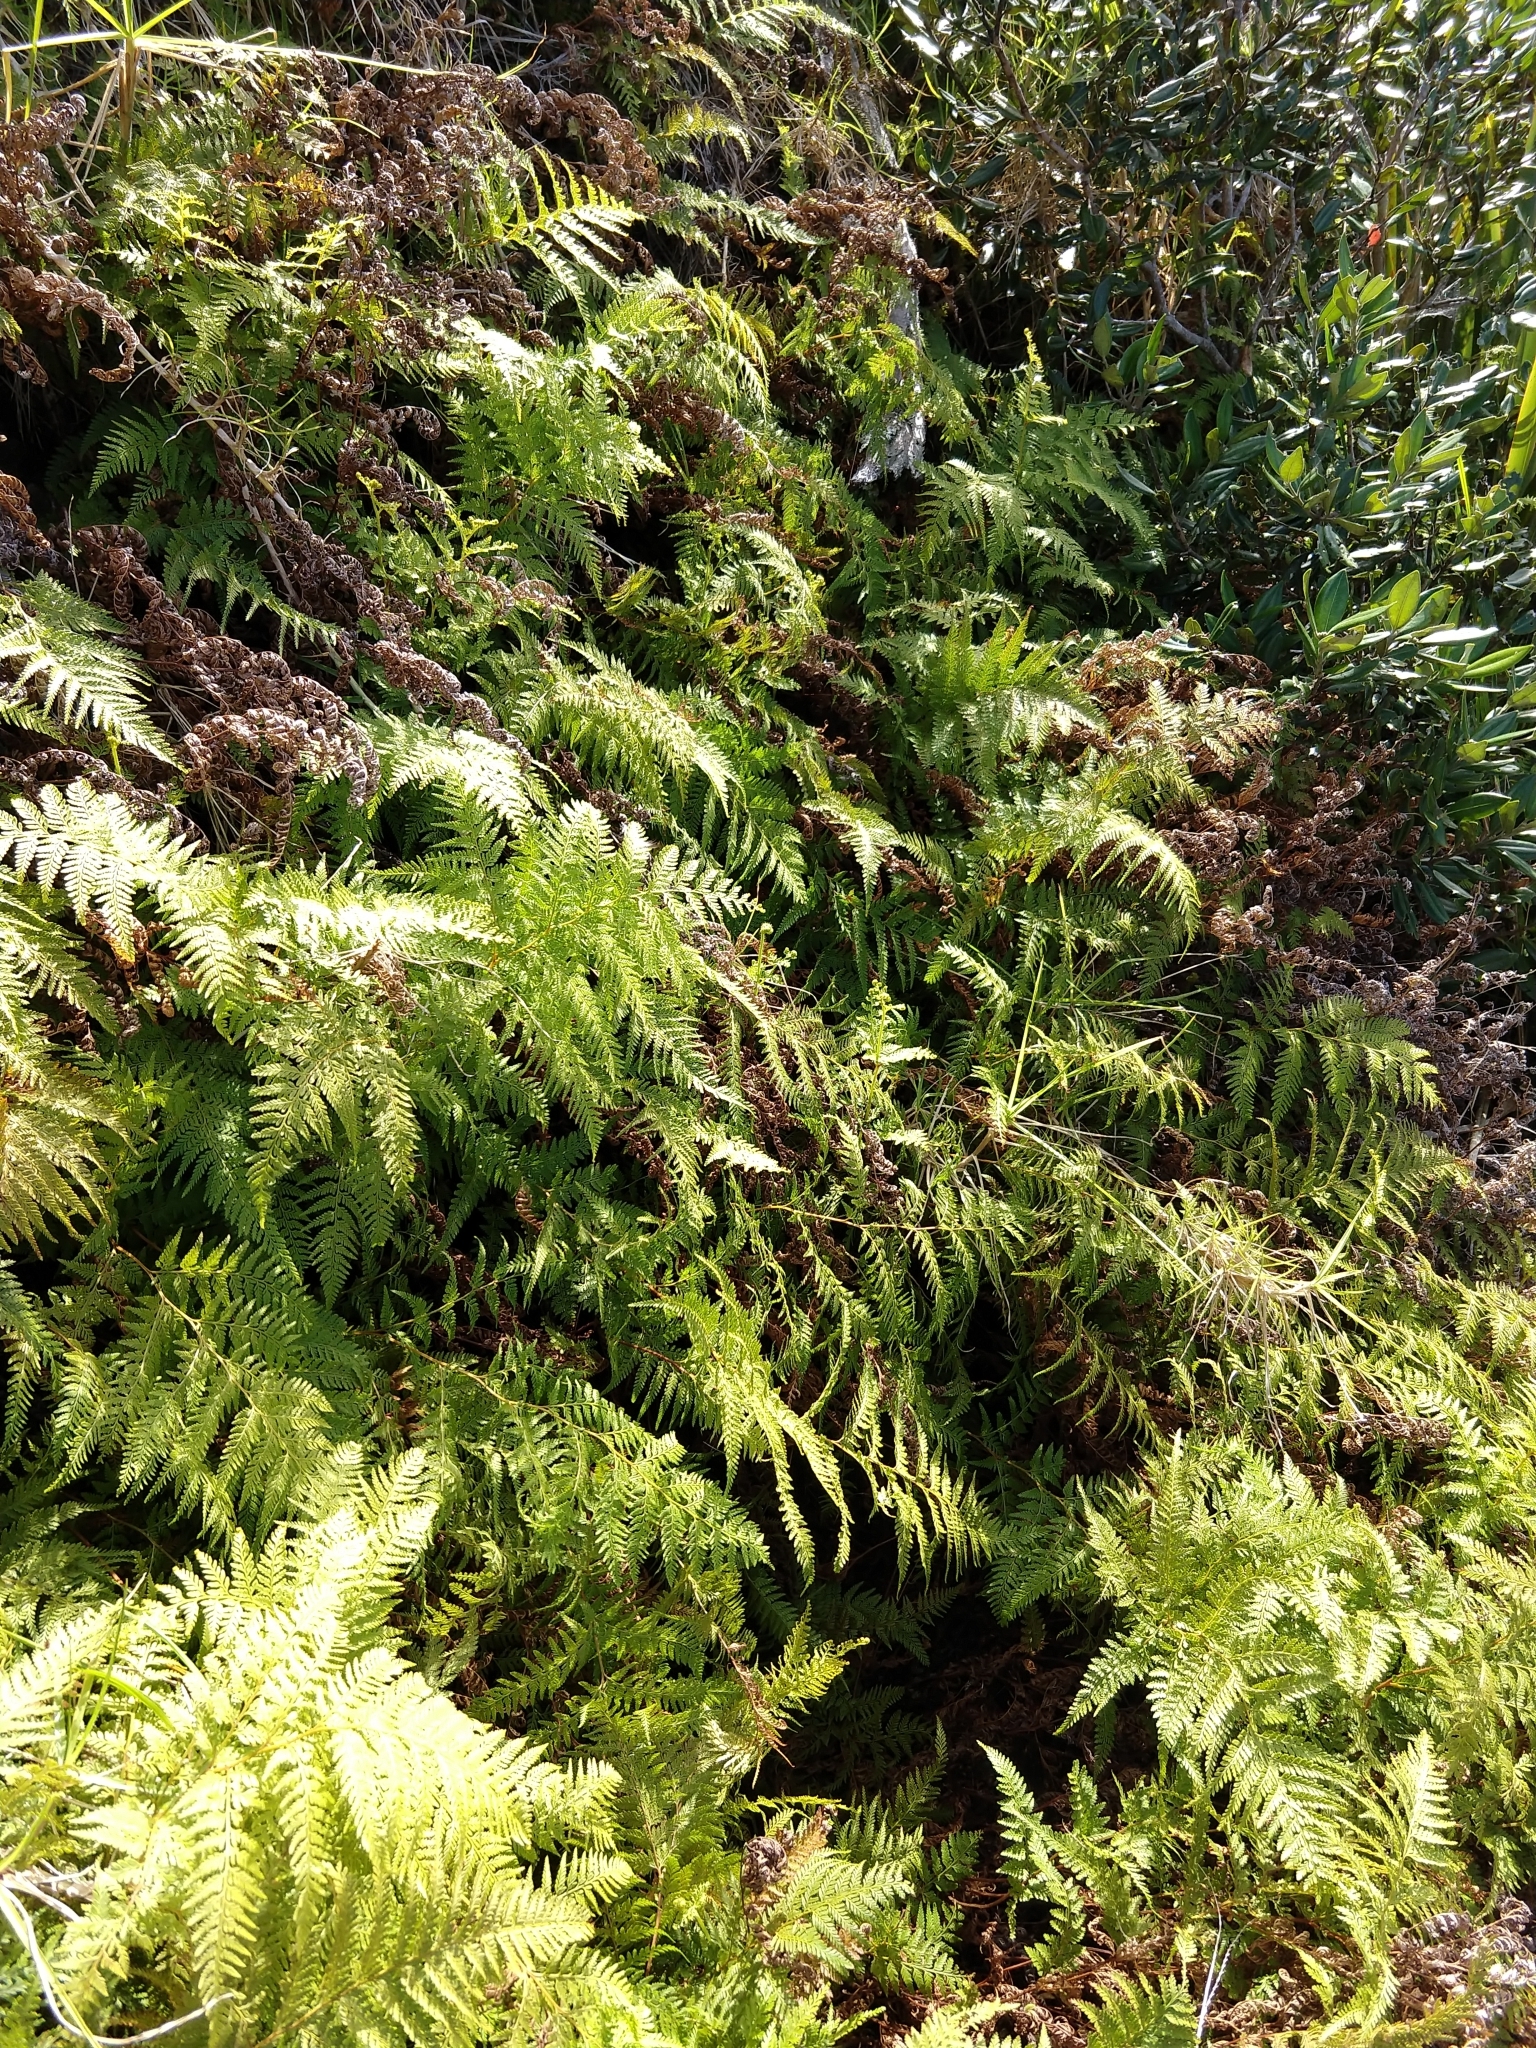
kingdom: Plantae
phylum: Tracheophyta
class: Polypodiopsida
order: Polypodiales
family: Dennstaedtiaceae
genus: Paesia
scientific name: Paesia scaberula
